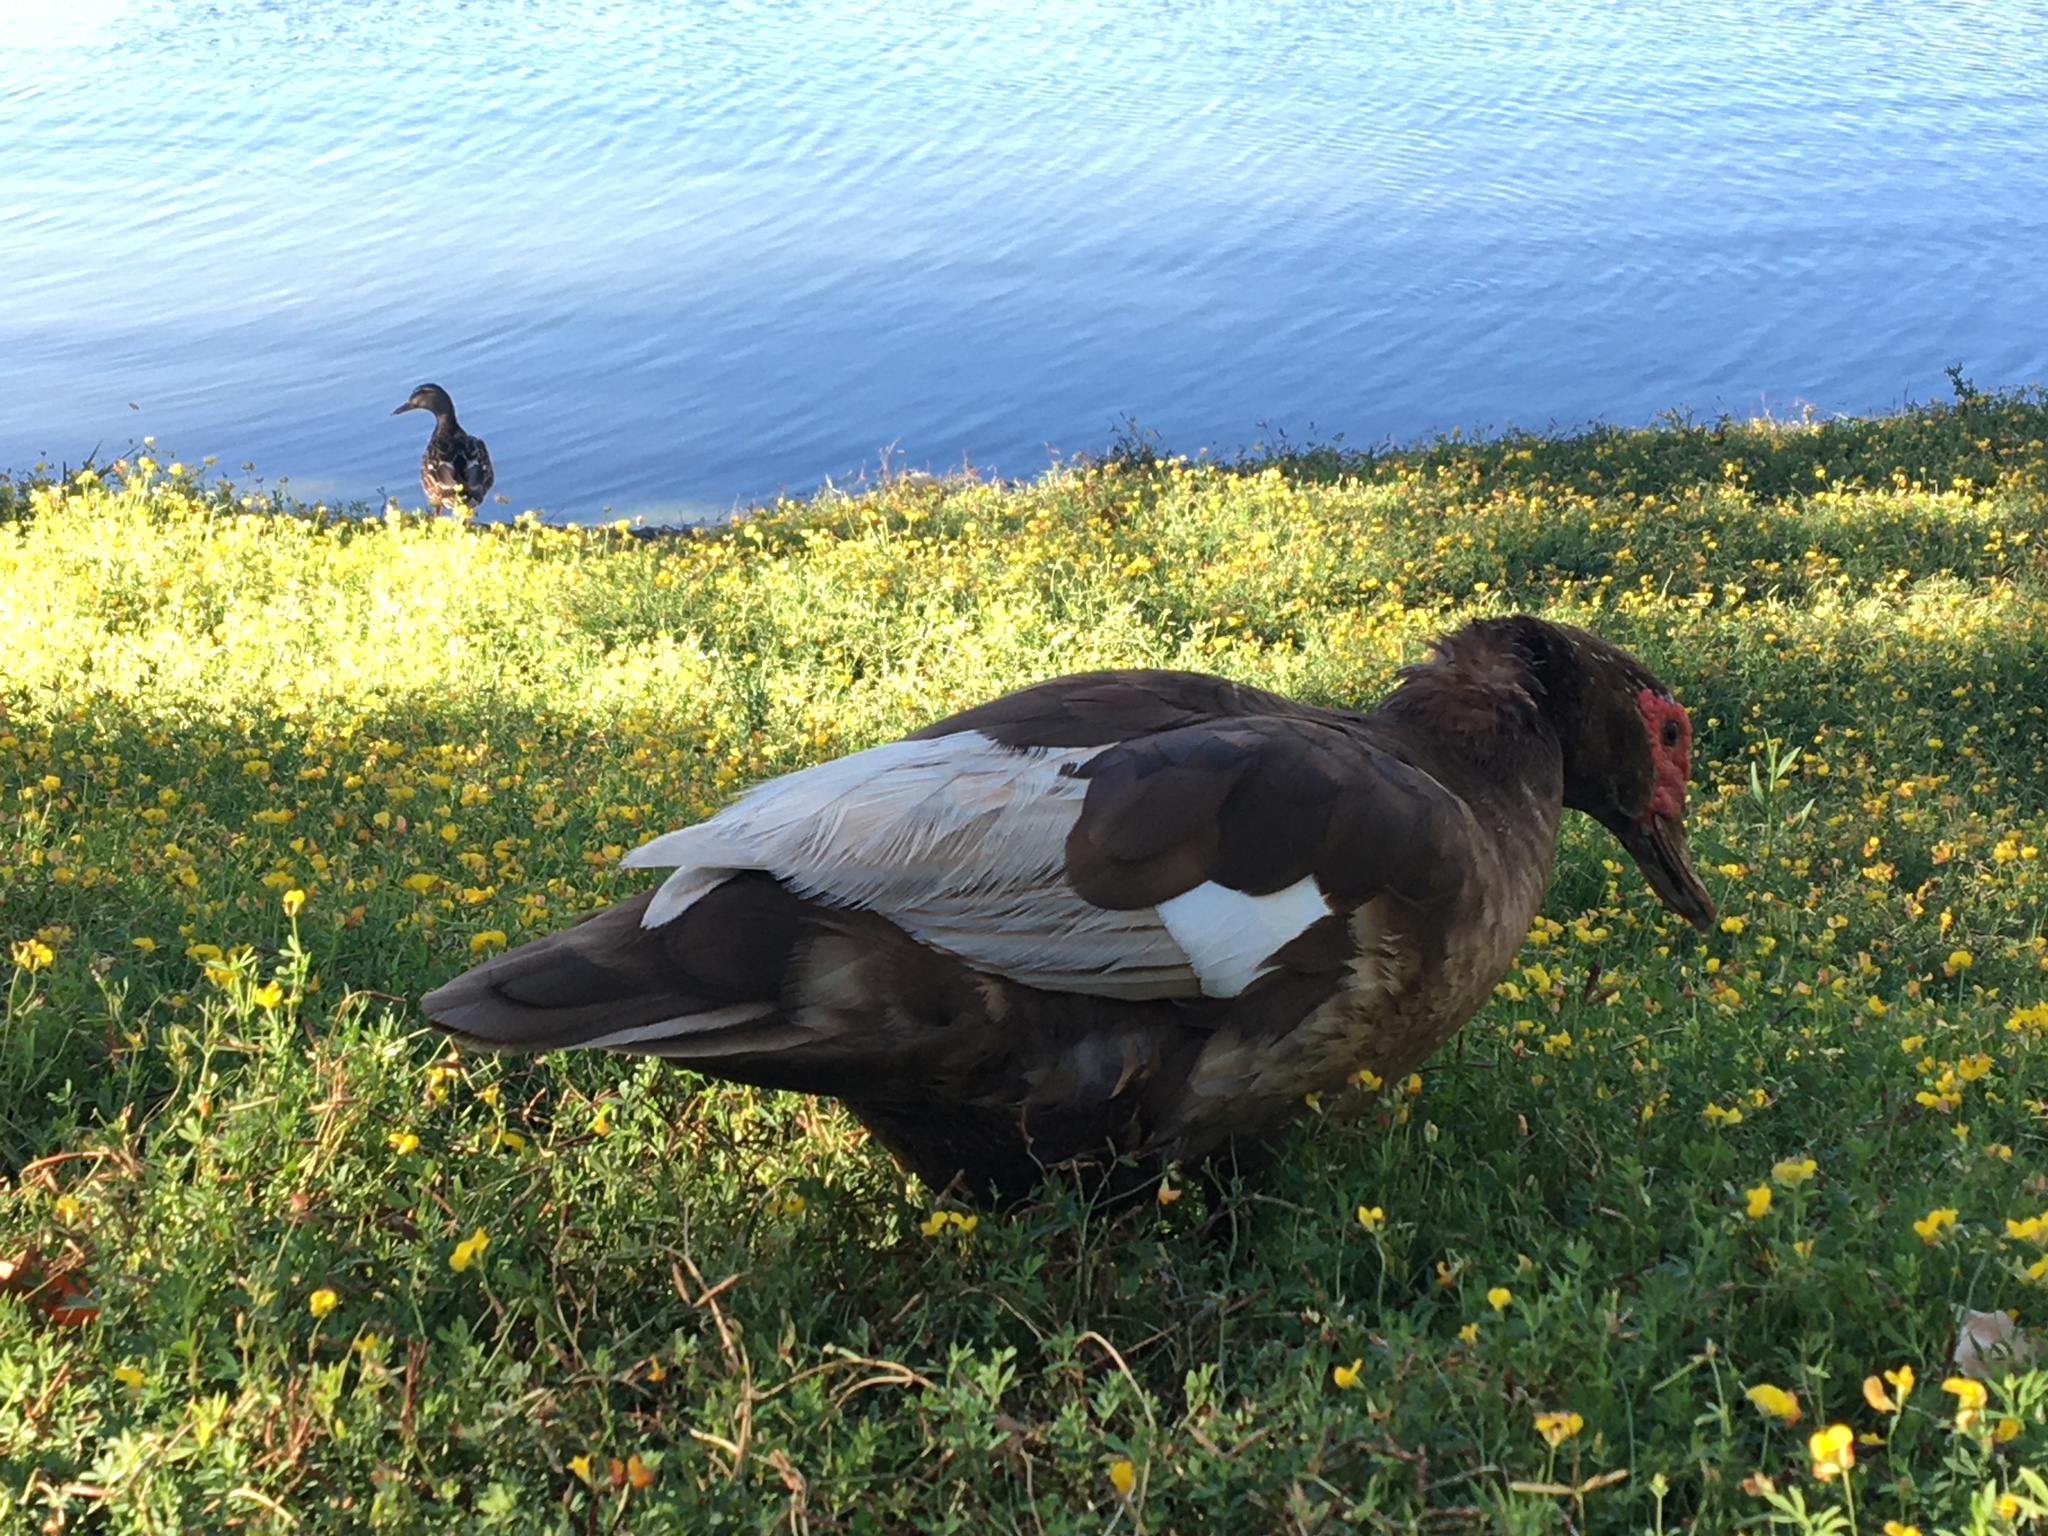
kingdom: Animalia
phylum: Chordata
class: Aves
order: Anseriformes
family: Anatidae
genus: Cairina
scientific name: Cairina moschata
